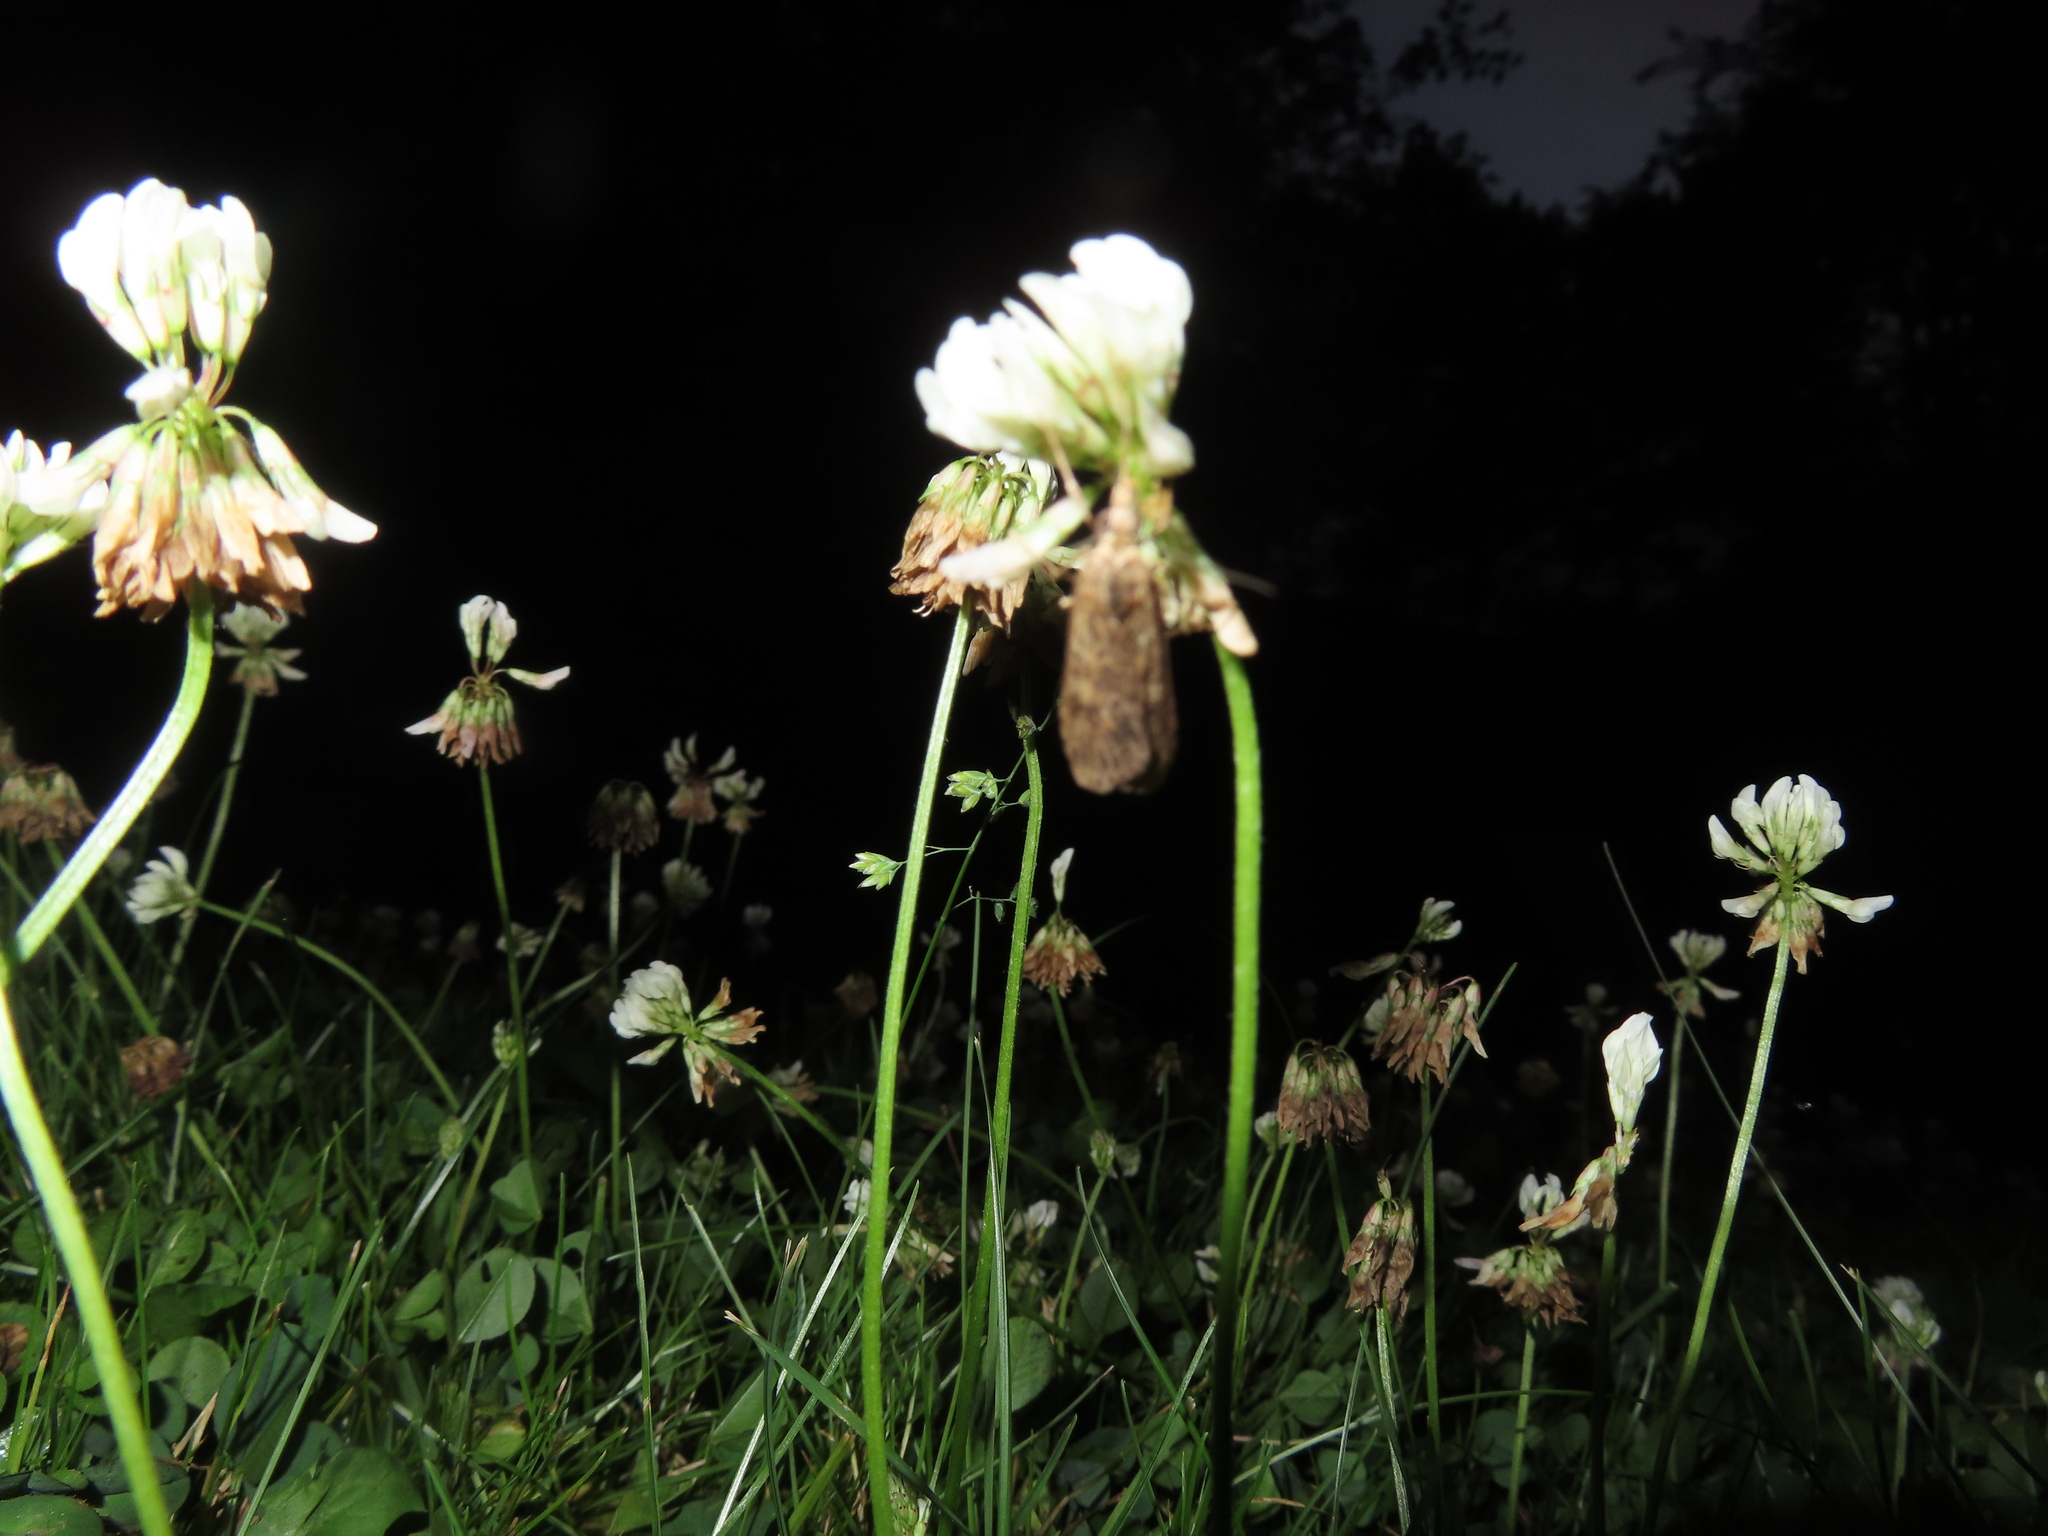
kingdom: Plantae
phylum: Tracheophyta
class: Magnoliopsida
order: Fabales
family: Fabaceae
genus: Trifolium
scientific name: Trifolium repens
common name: White clover
